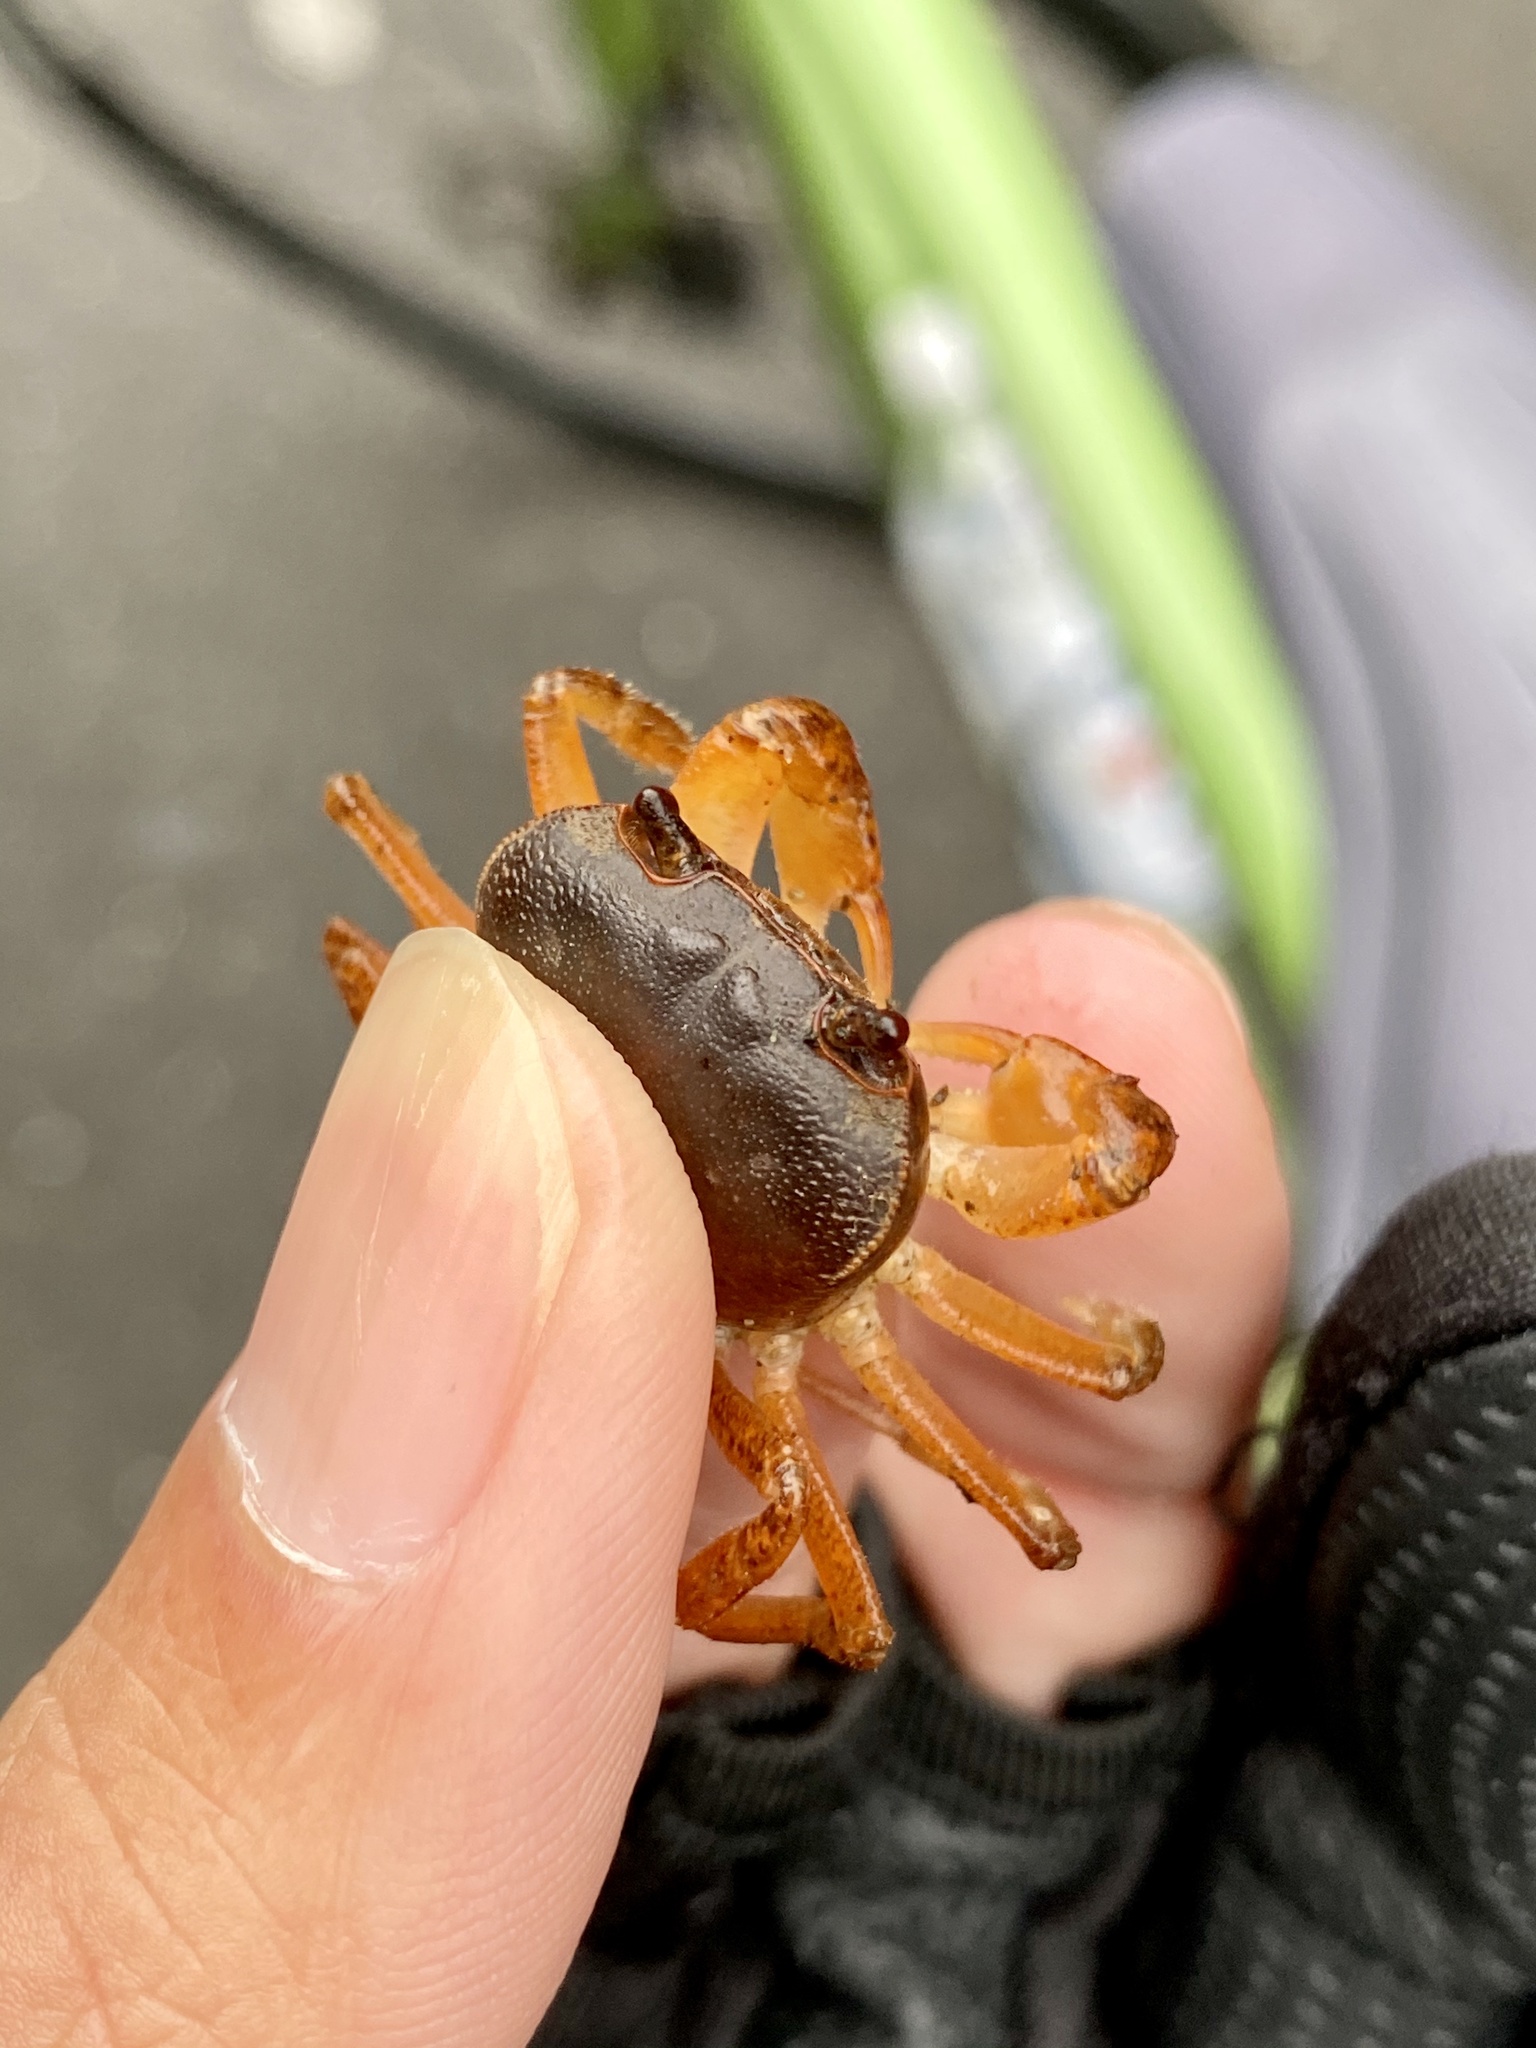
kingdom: Animalia
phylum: Arthropoda
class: Malacostraca
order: Decapoda
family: Potamidae
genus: Geothelphusa
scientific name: Geothelphusa dehaani
